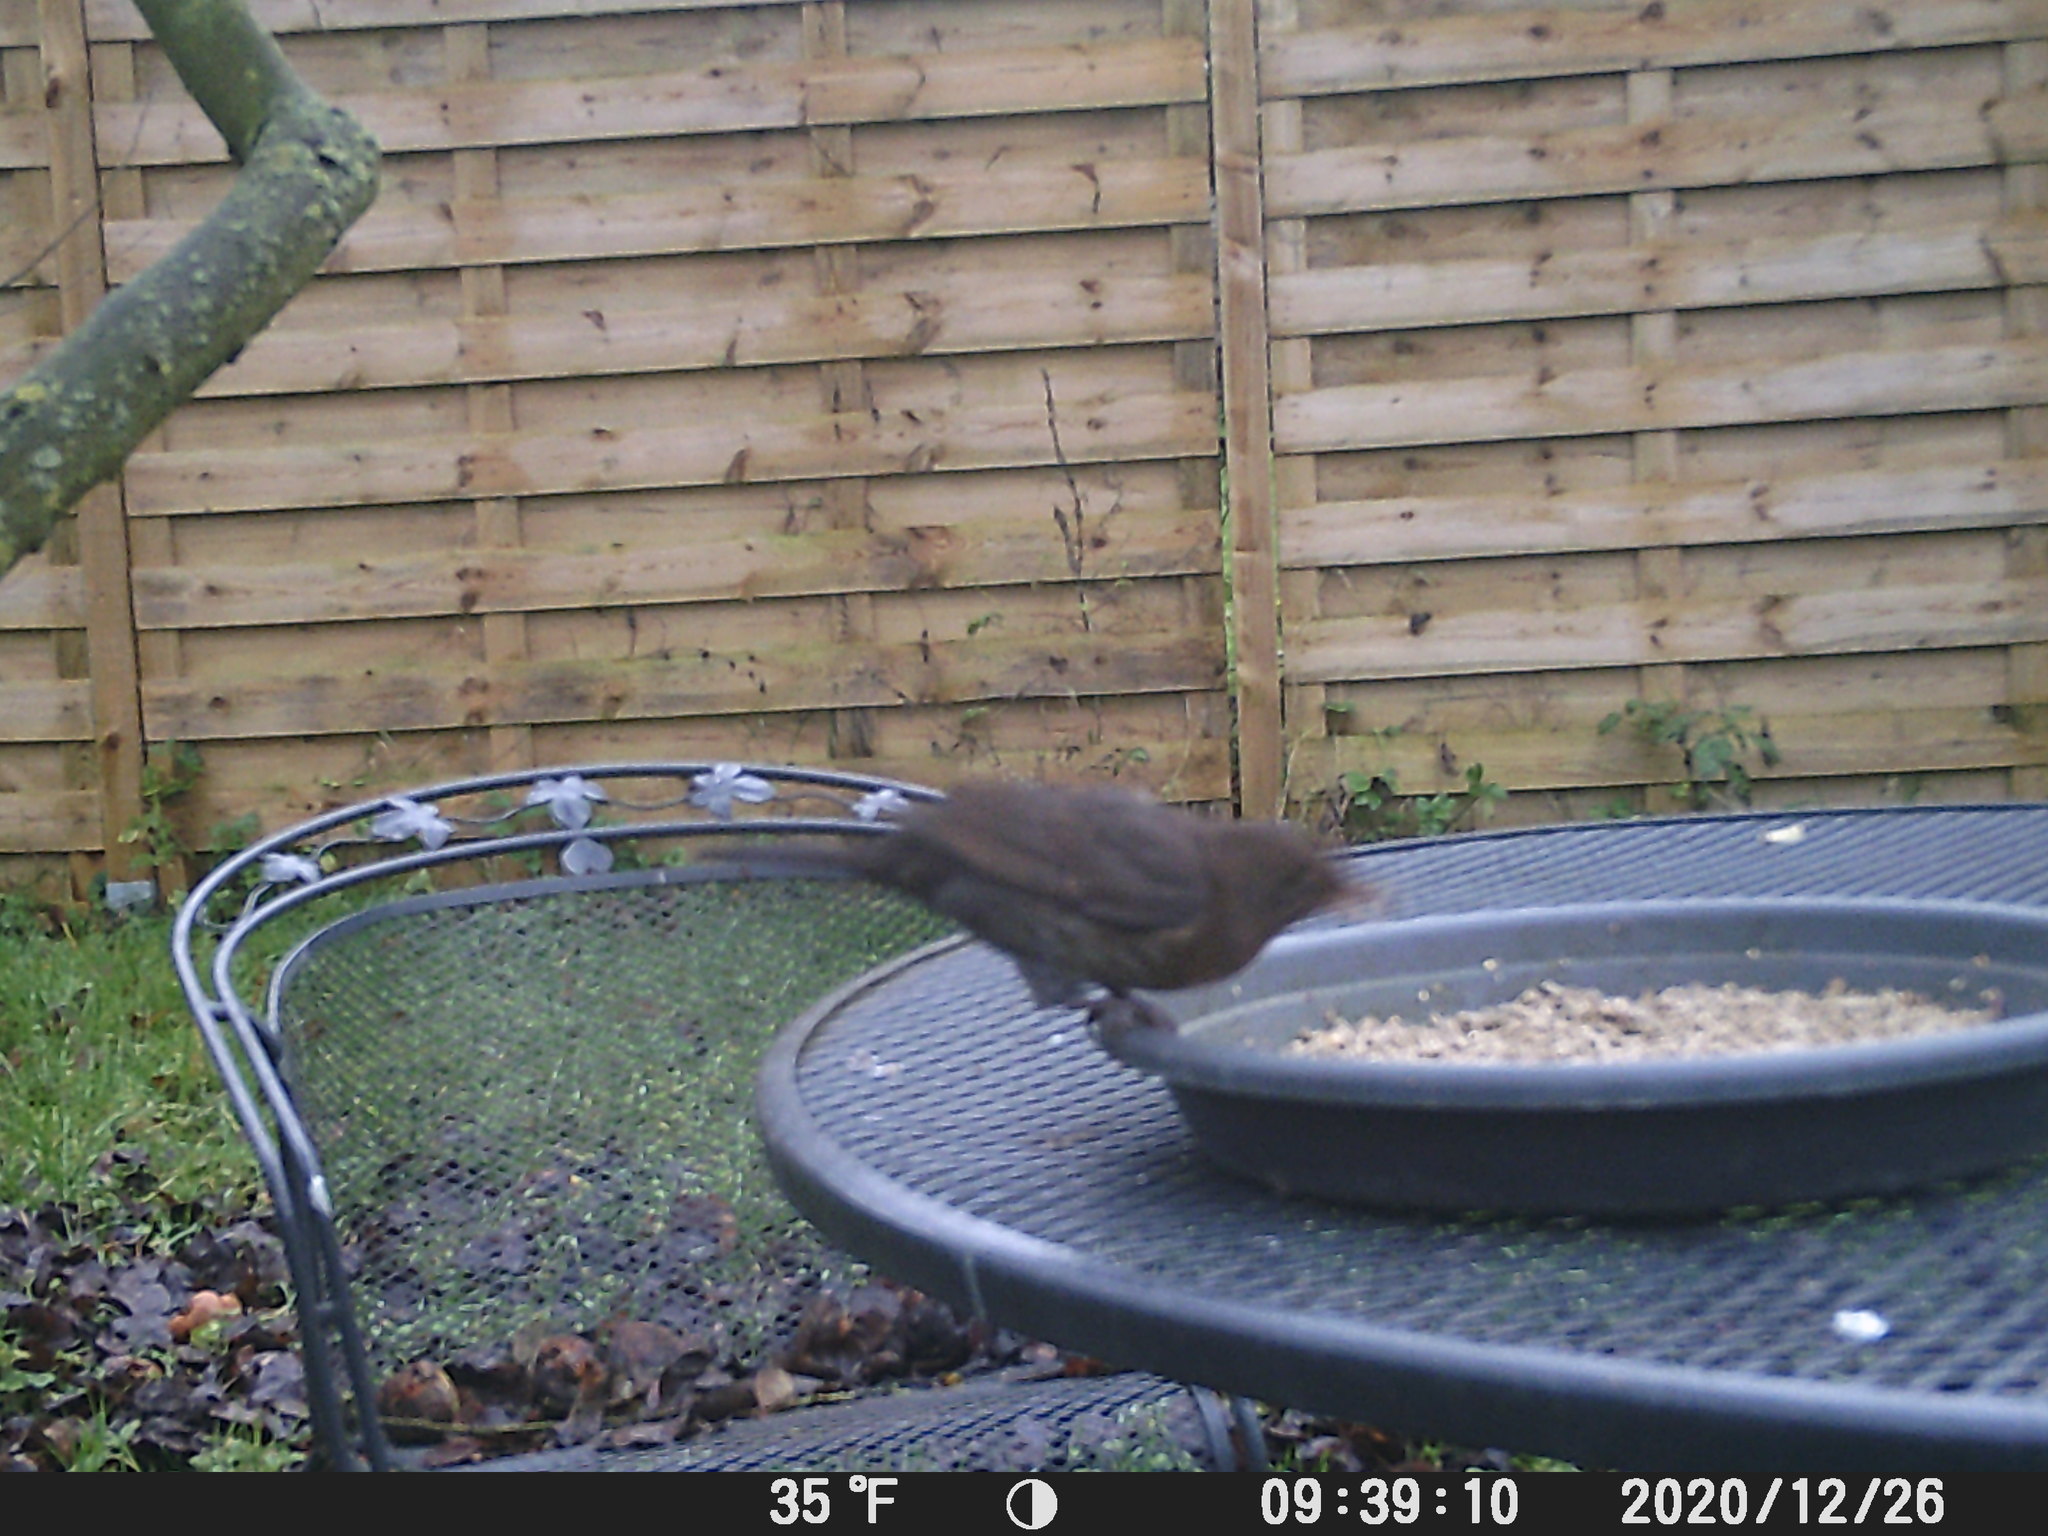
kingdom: Animalia
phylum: Chordata
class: Aves
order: Passeriformes
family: Turdidae
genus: Turdus
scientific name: Turdus merula
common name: Common blackbird
